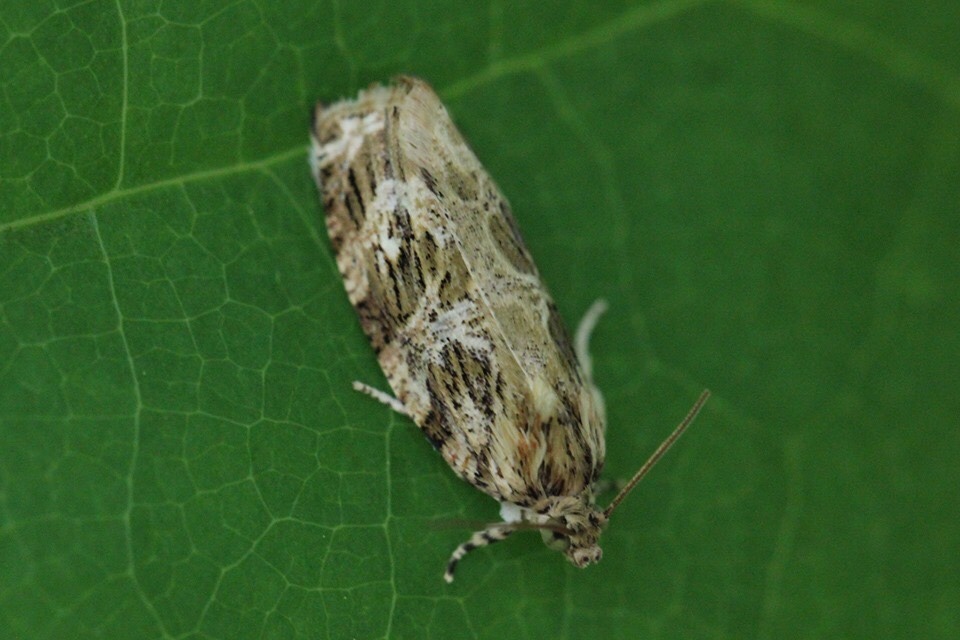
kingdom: Animalia
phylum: Arthropoda
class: Insecta
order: Lepidoptera
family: Tortricidae
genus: Phaecasiophora
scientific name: Phaecasiophora confixana
